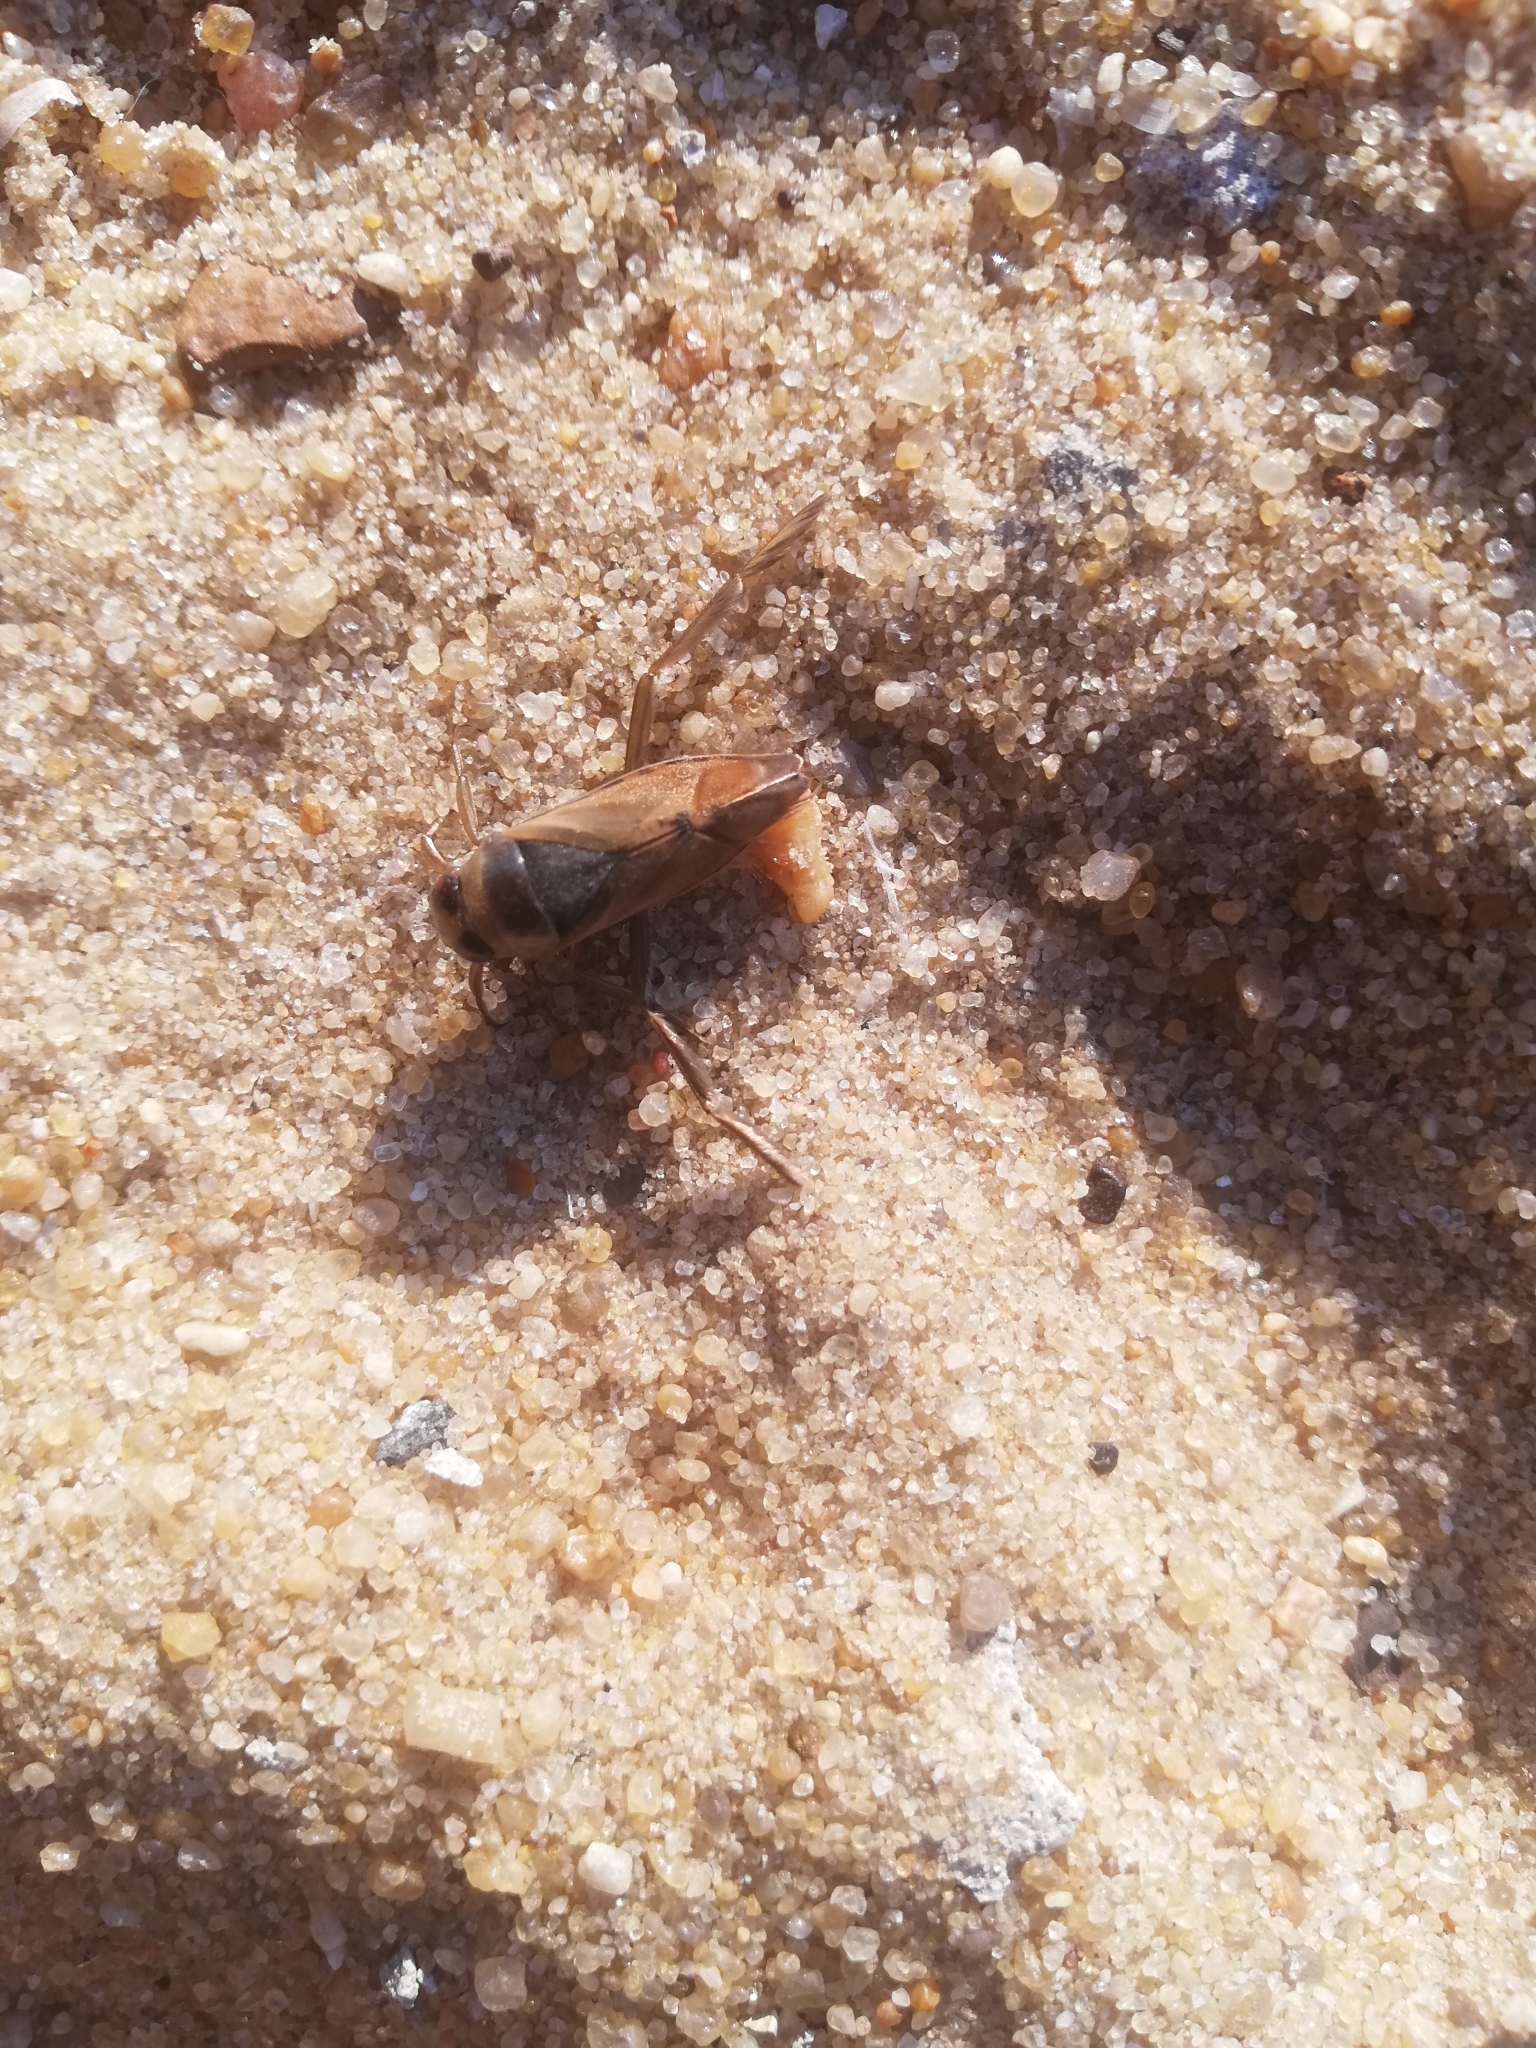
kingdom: Animalia
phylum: Arthropoda
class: Insecta
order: Hemiptera
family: Notonectidae
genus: Notonecta
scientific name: Notonecta glauca
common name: Common water-boatman
